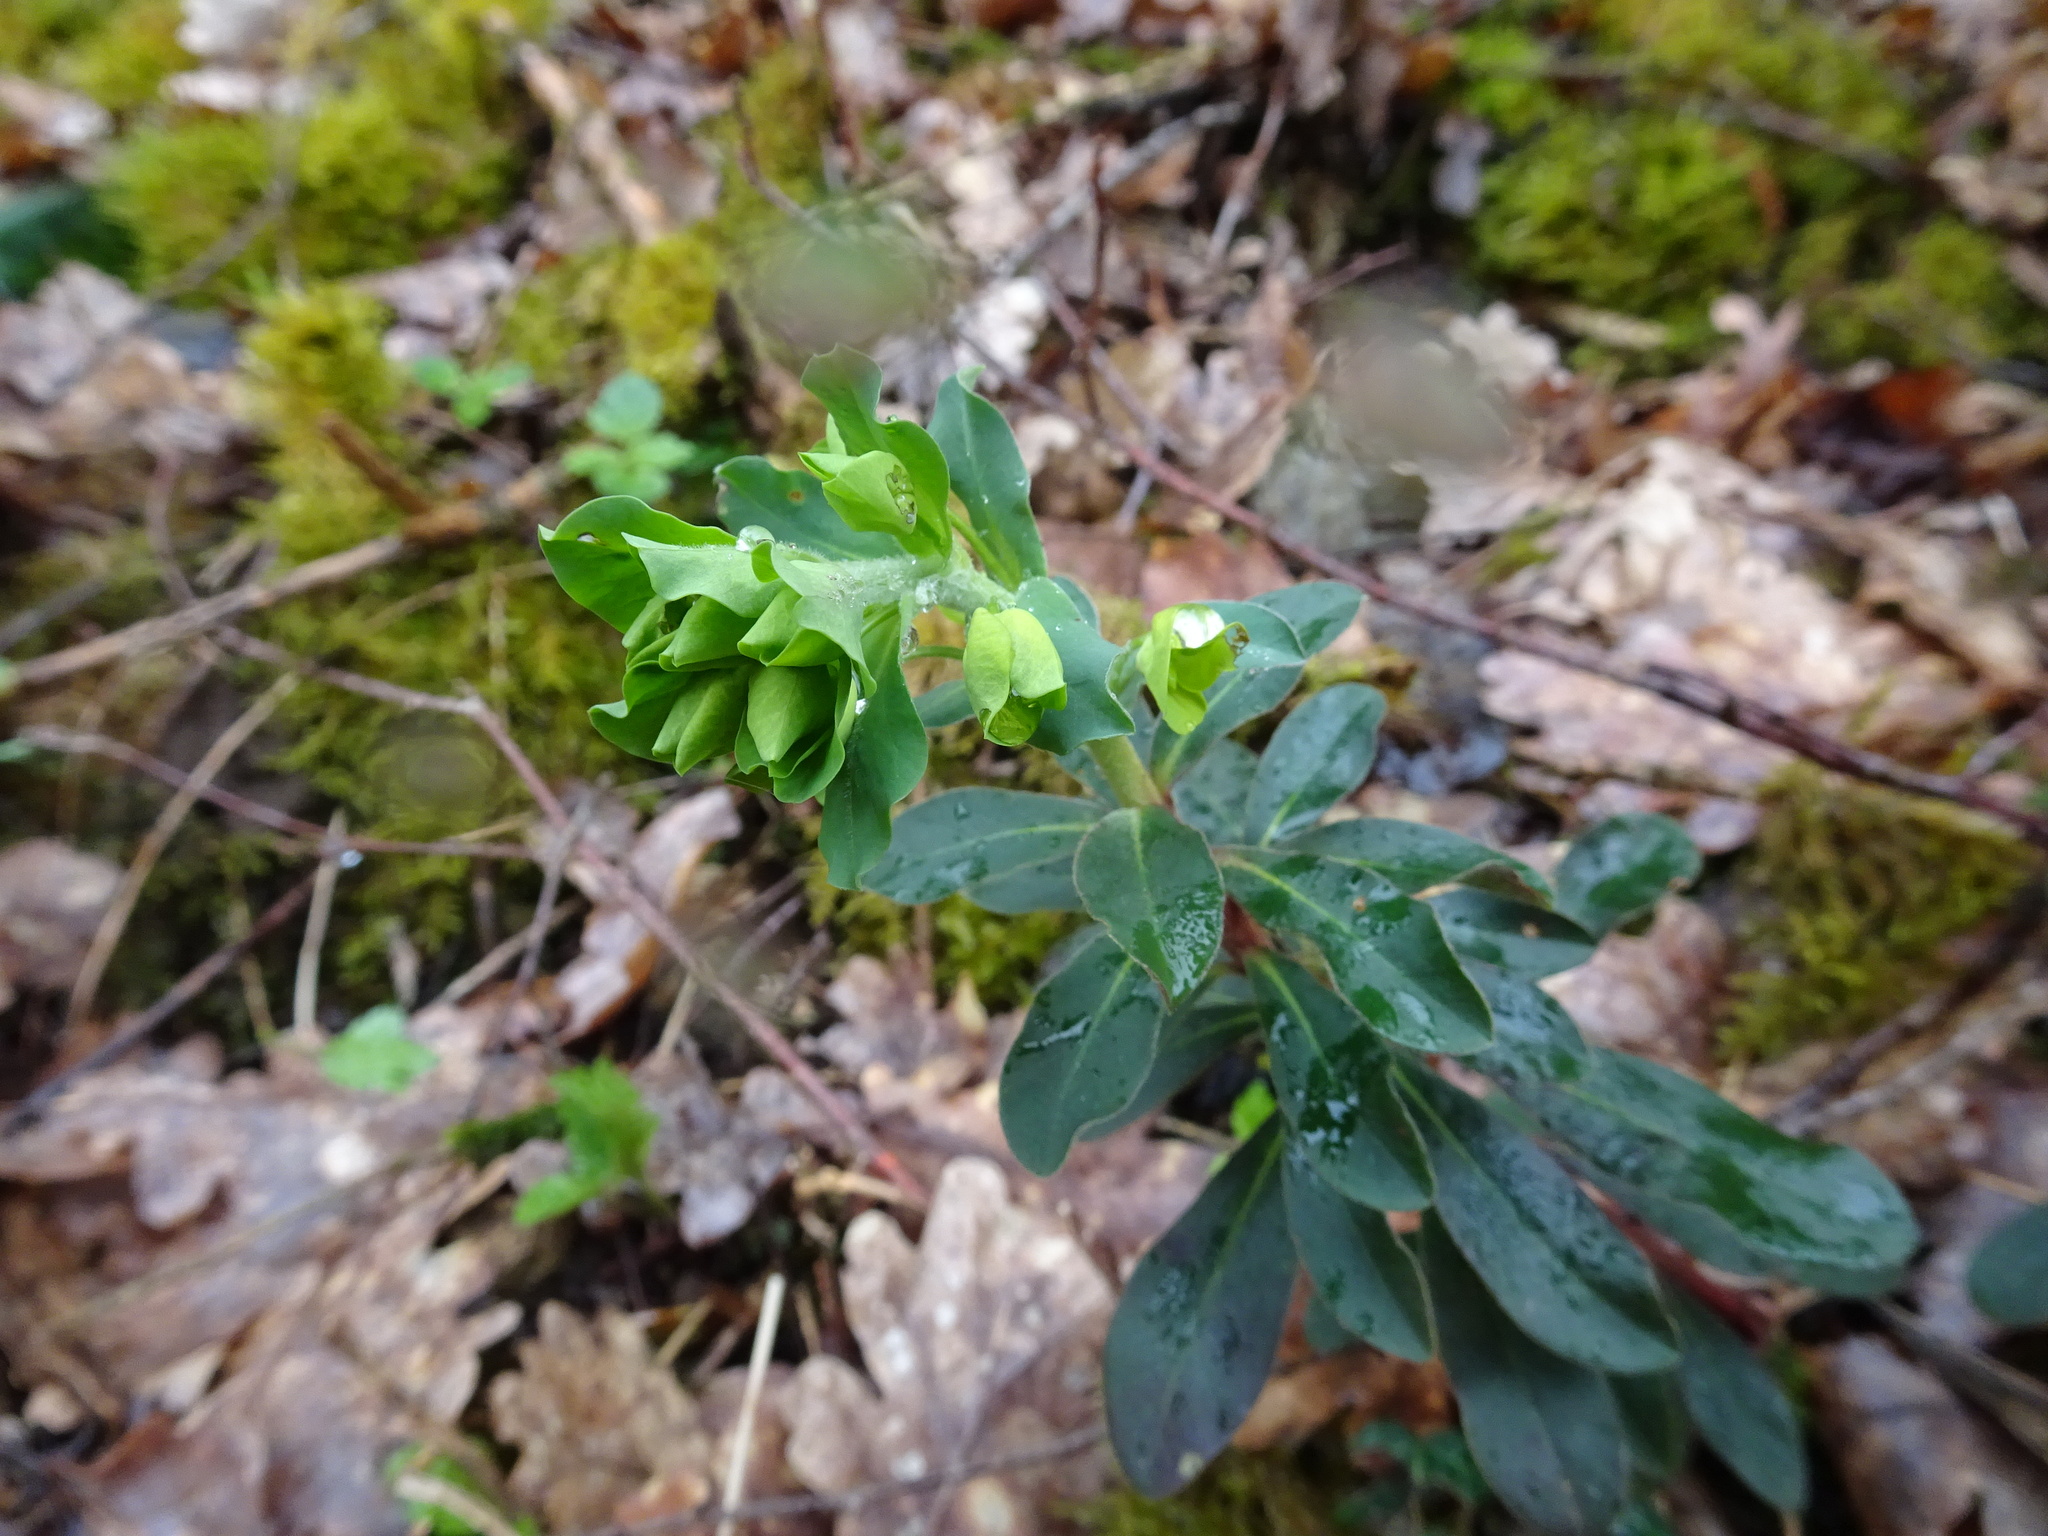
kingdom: Plantae
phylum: Tracheophyta
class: Magnoliopsida
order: Malpighiales
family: Euphorbiaceae
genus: Euphorbia
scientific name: Euphorbia amygdaloides
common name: Wood spurge
